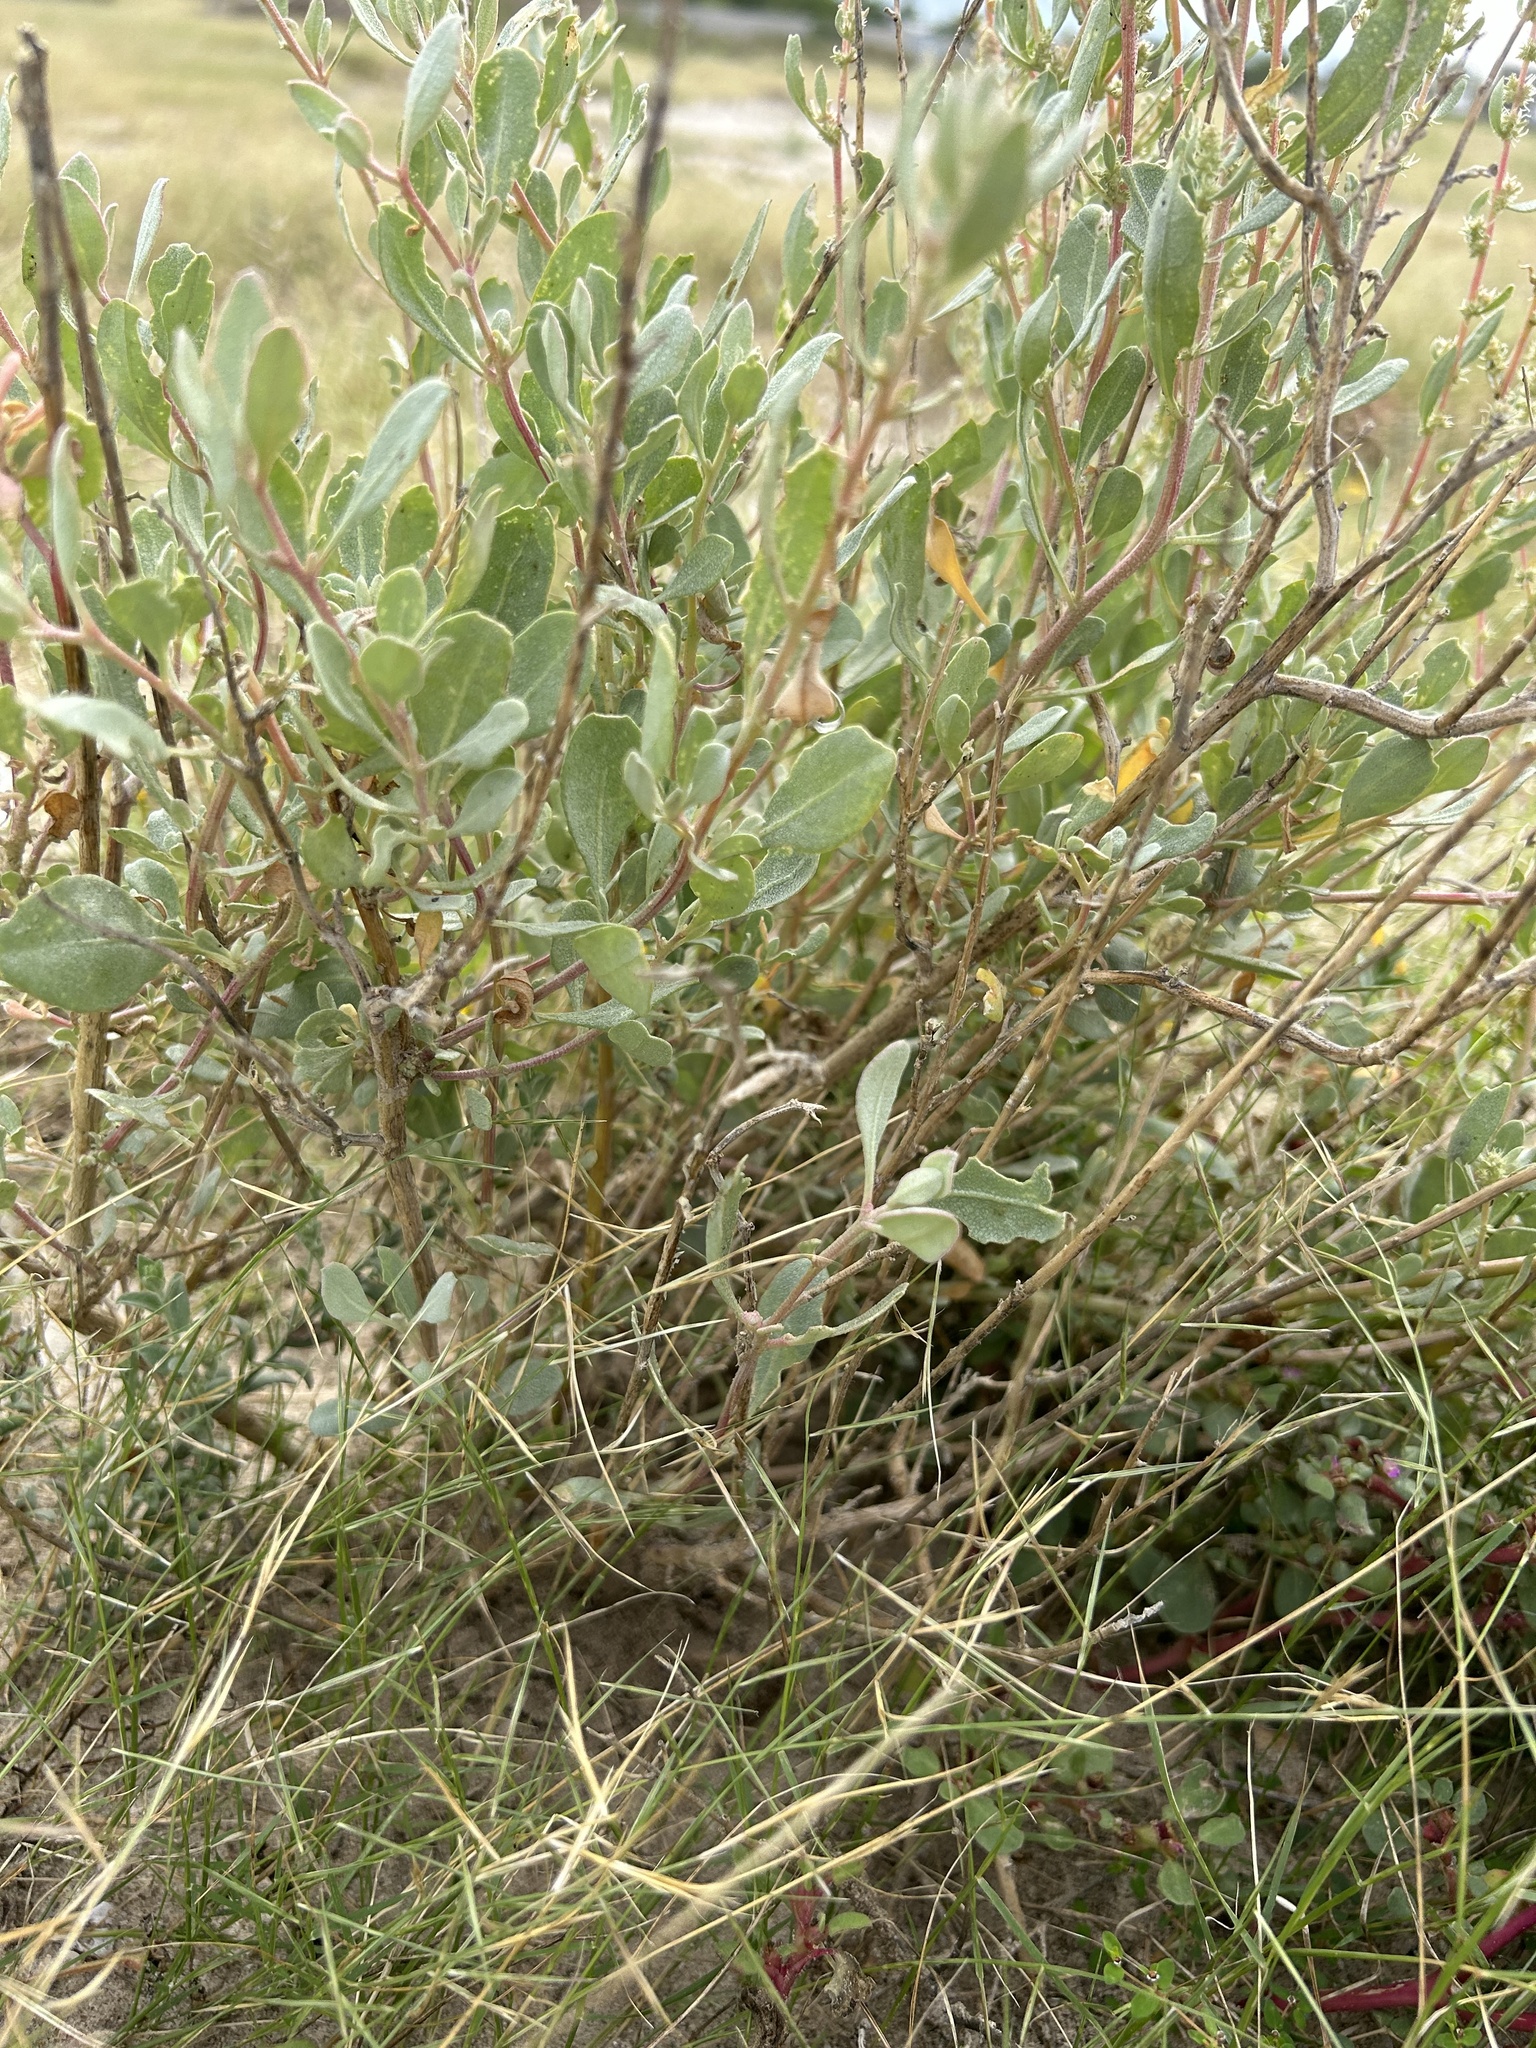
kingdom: Plantae
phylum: Tracheophyta
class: Magnoliopsida
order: Caryophyllales
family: Amaranthaceae
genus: Atriplex
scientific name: Atriplex barclayana
